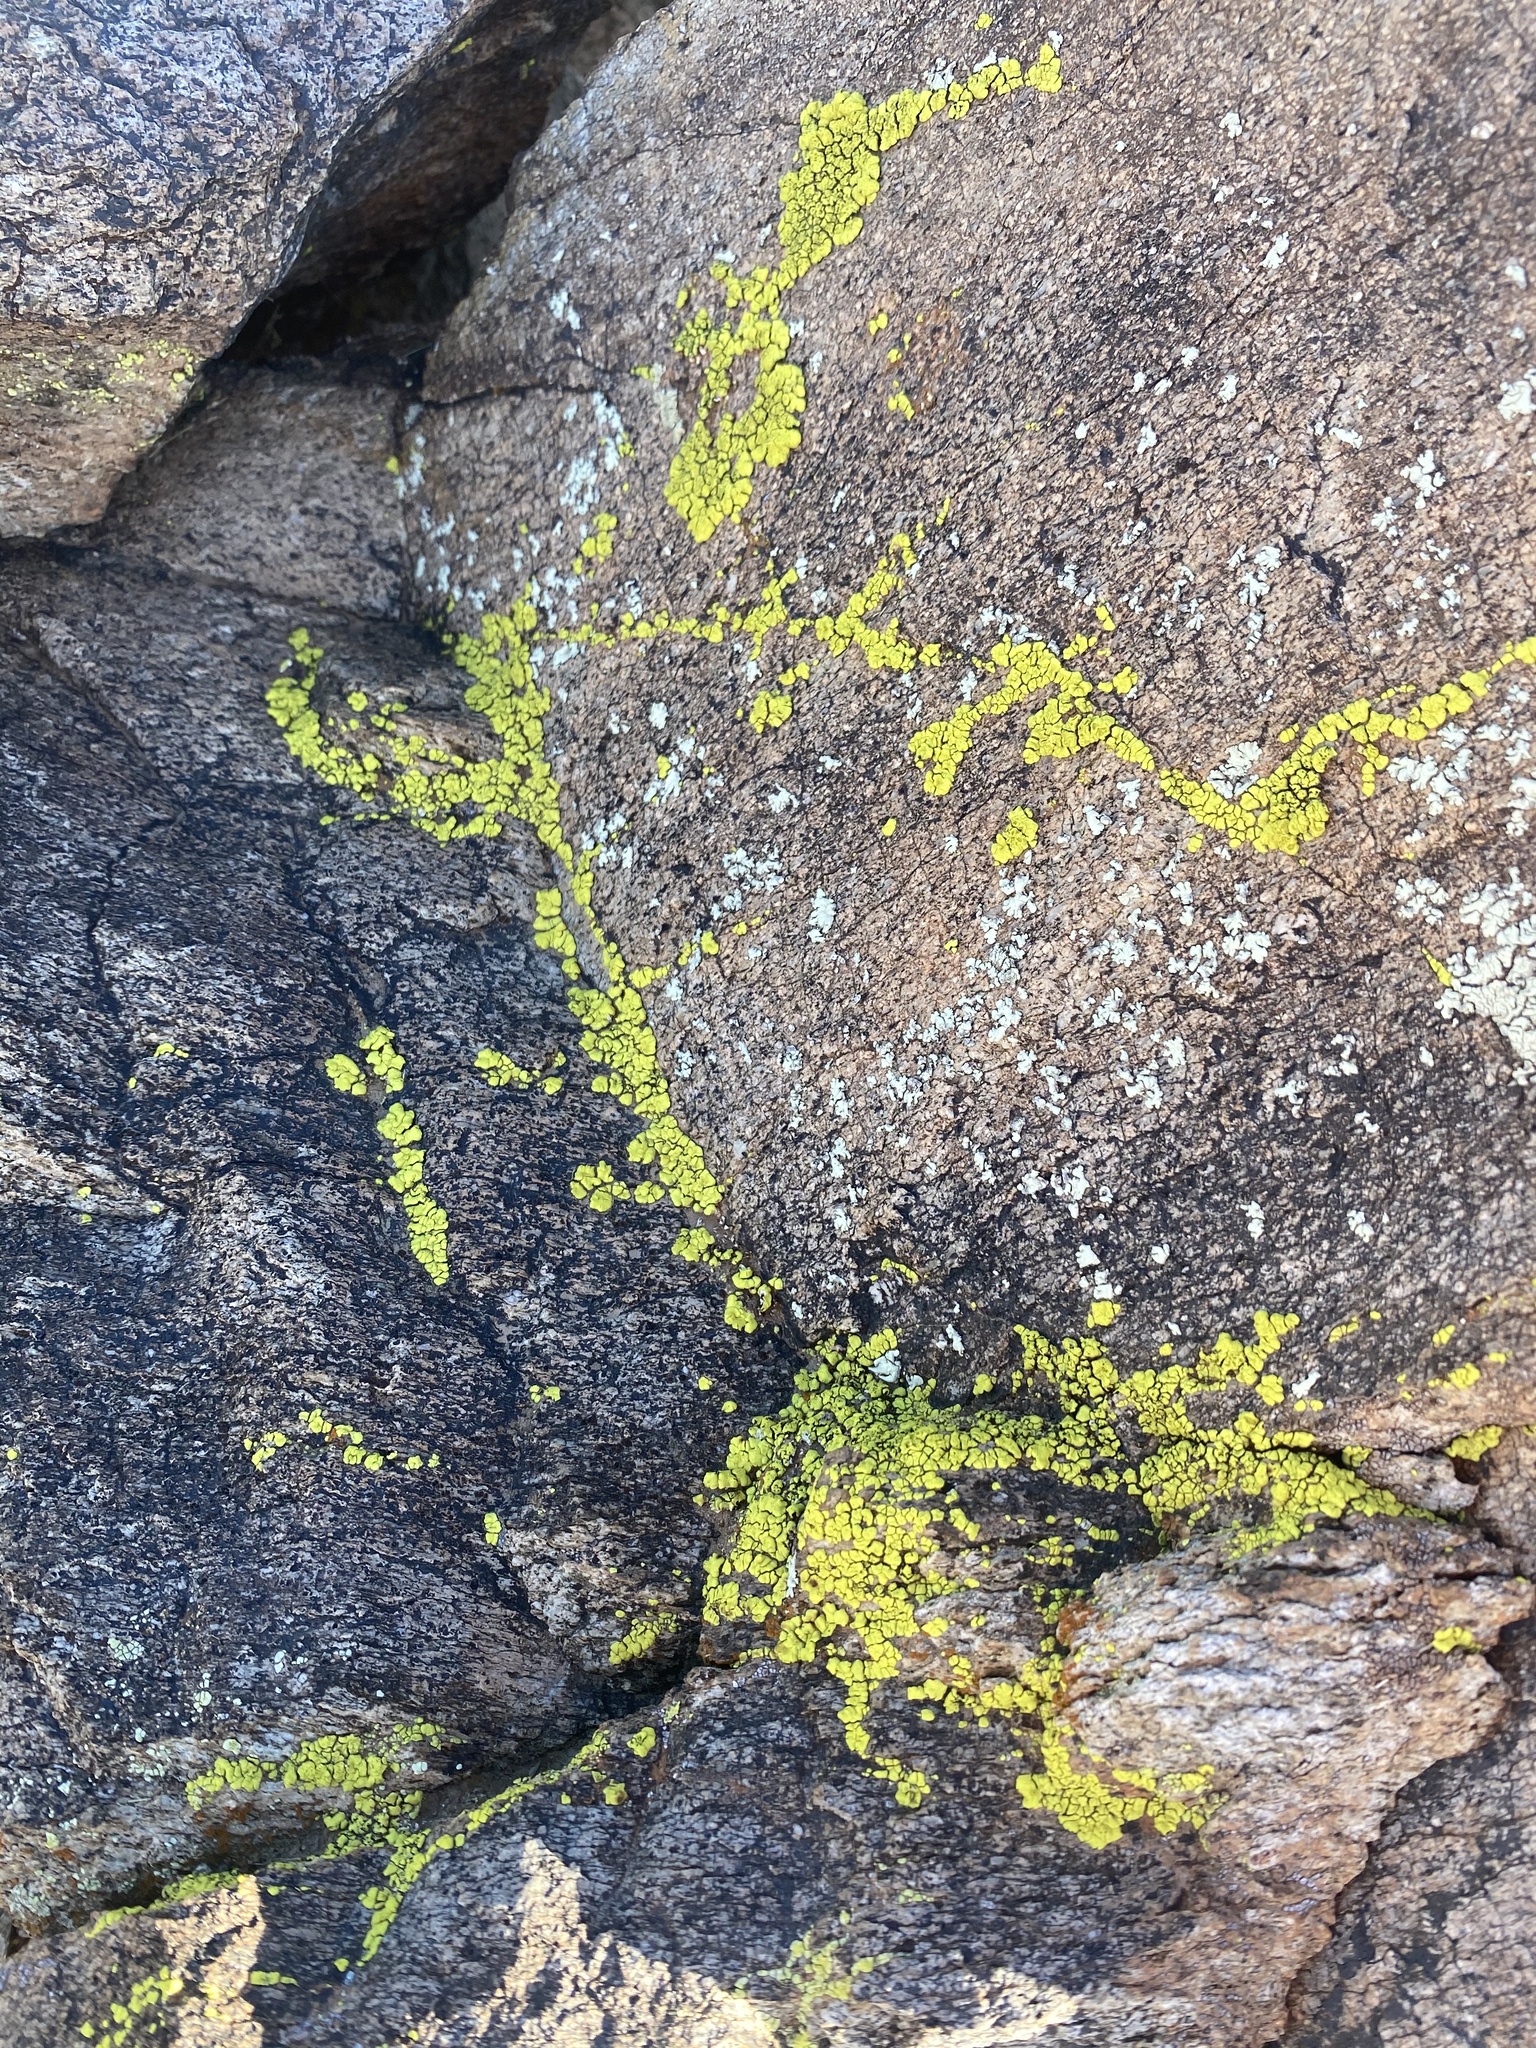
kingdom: Fungi
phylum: Ascomycota
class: Lecanoromycetes
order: Acarosporales
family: Acarosporaceae
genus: Acarospora
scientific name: Acarospora socialis
